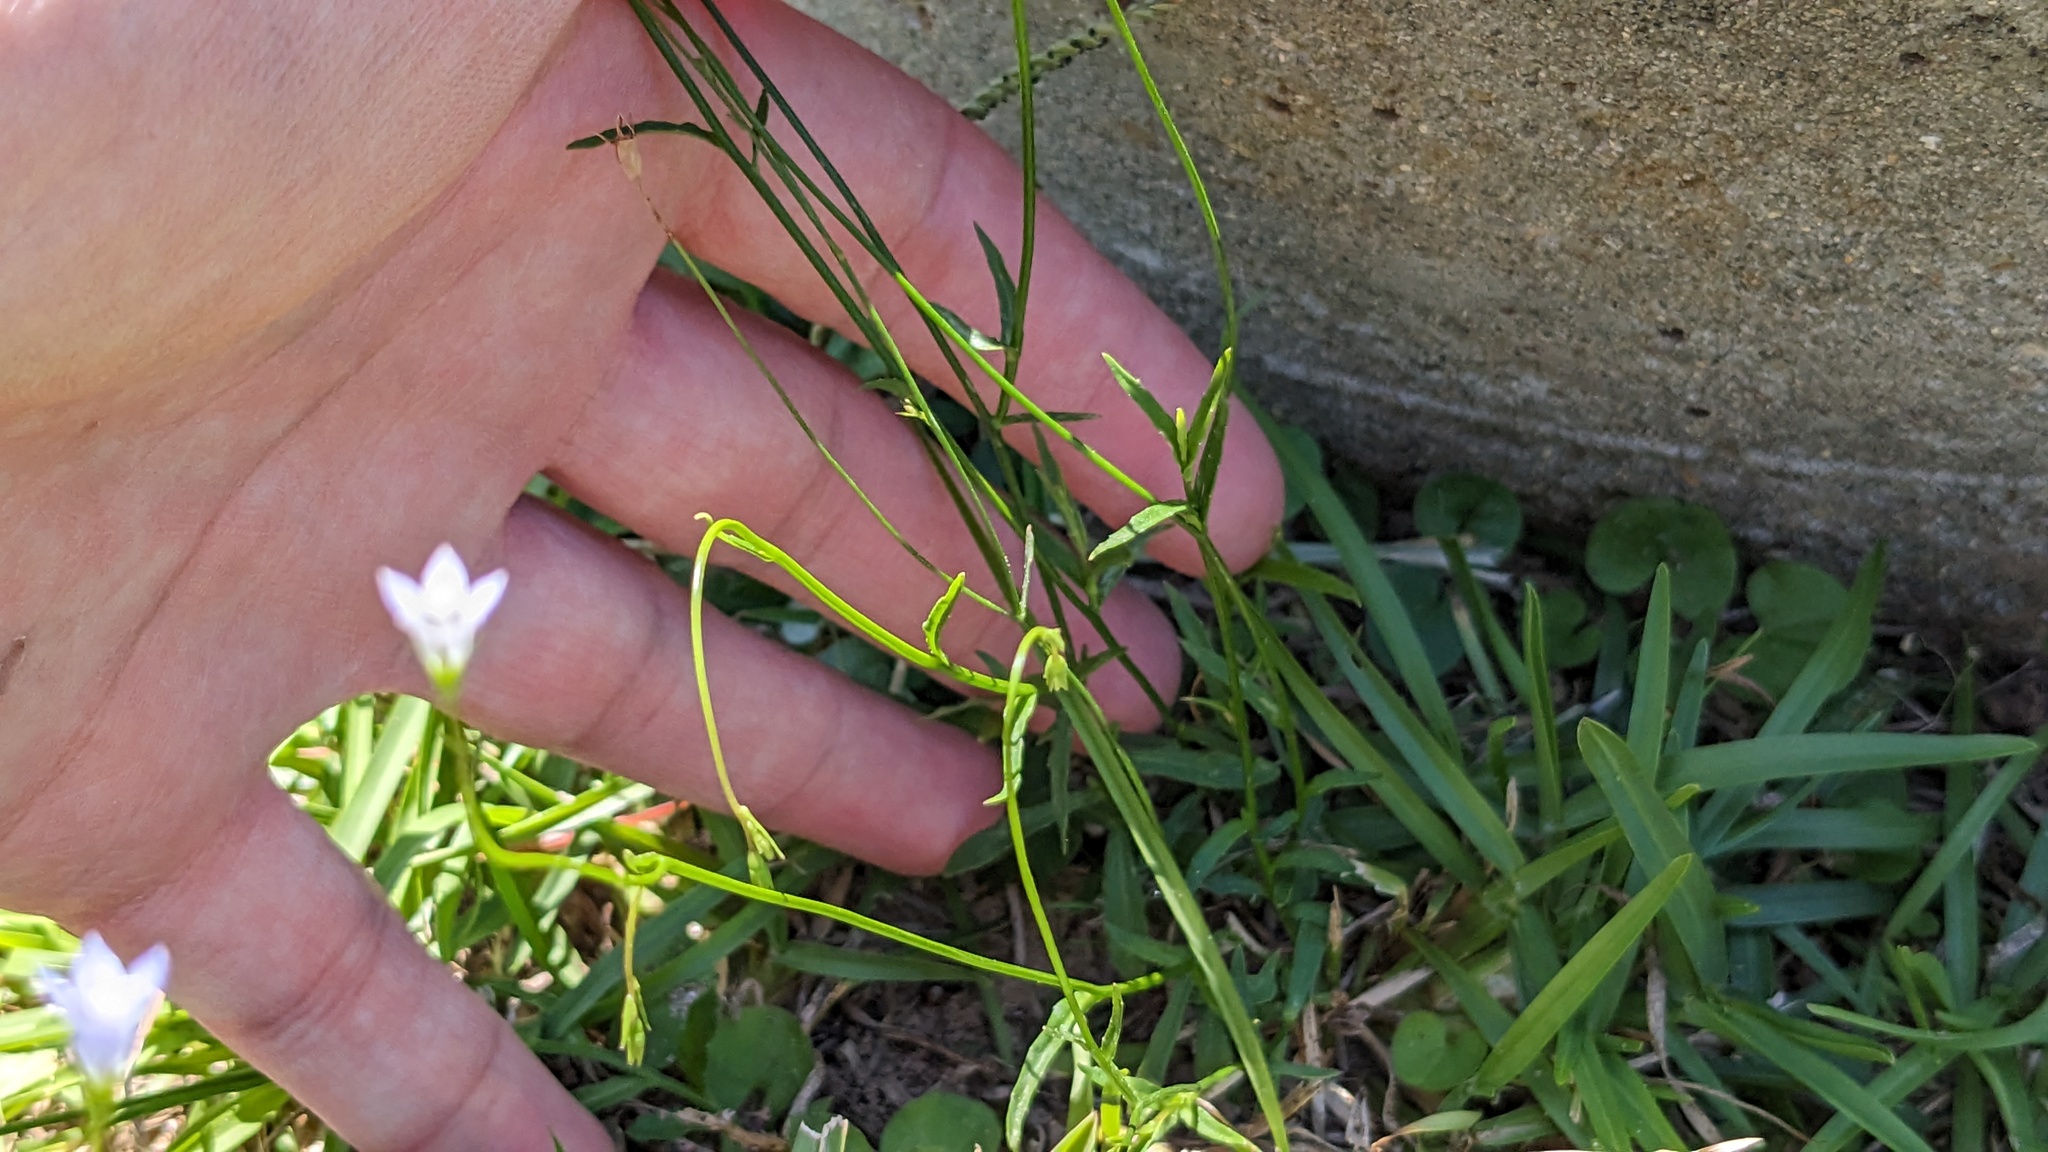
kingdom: Plantae
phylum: Tracheophyta
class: Magnoliopsida
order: Asterales
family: Campanulaceae
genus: Wahlenbergia
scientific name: Wahlenbergia marginata
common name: Southern rockbell
